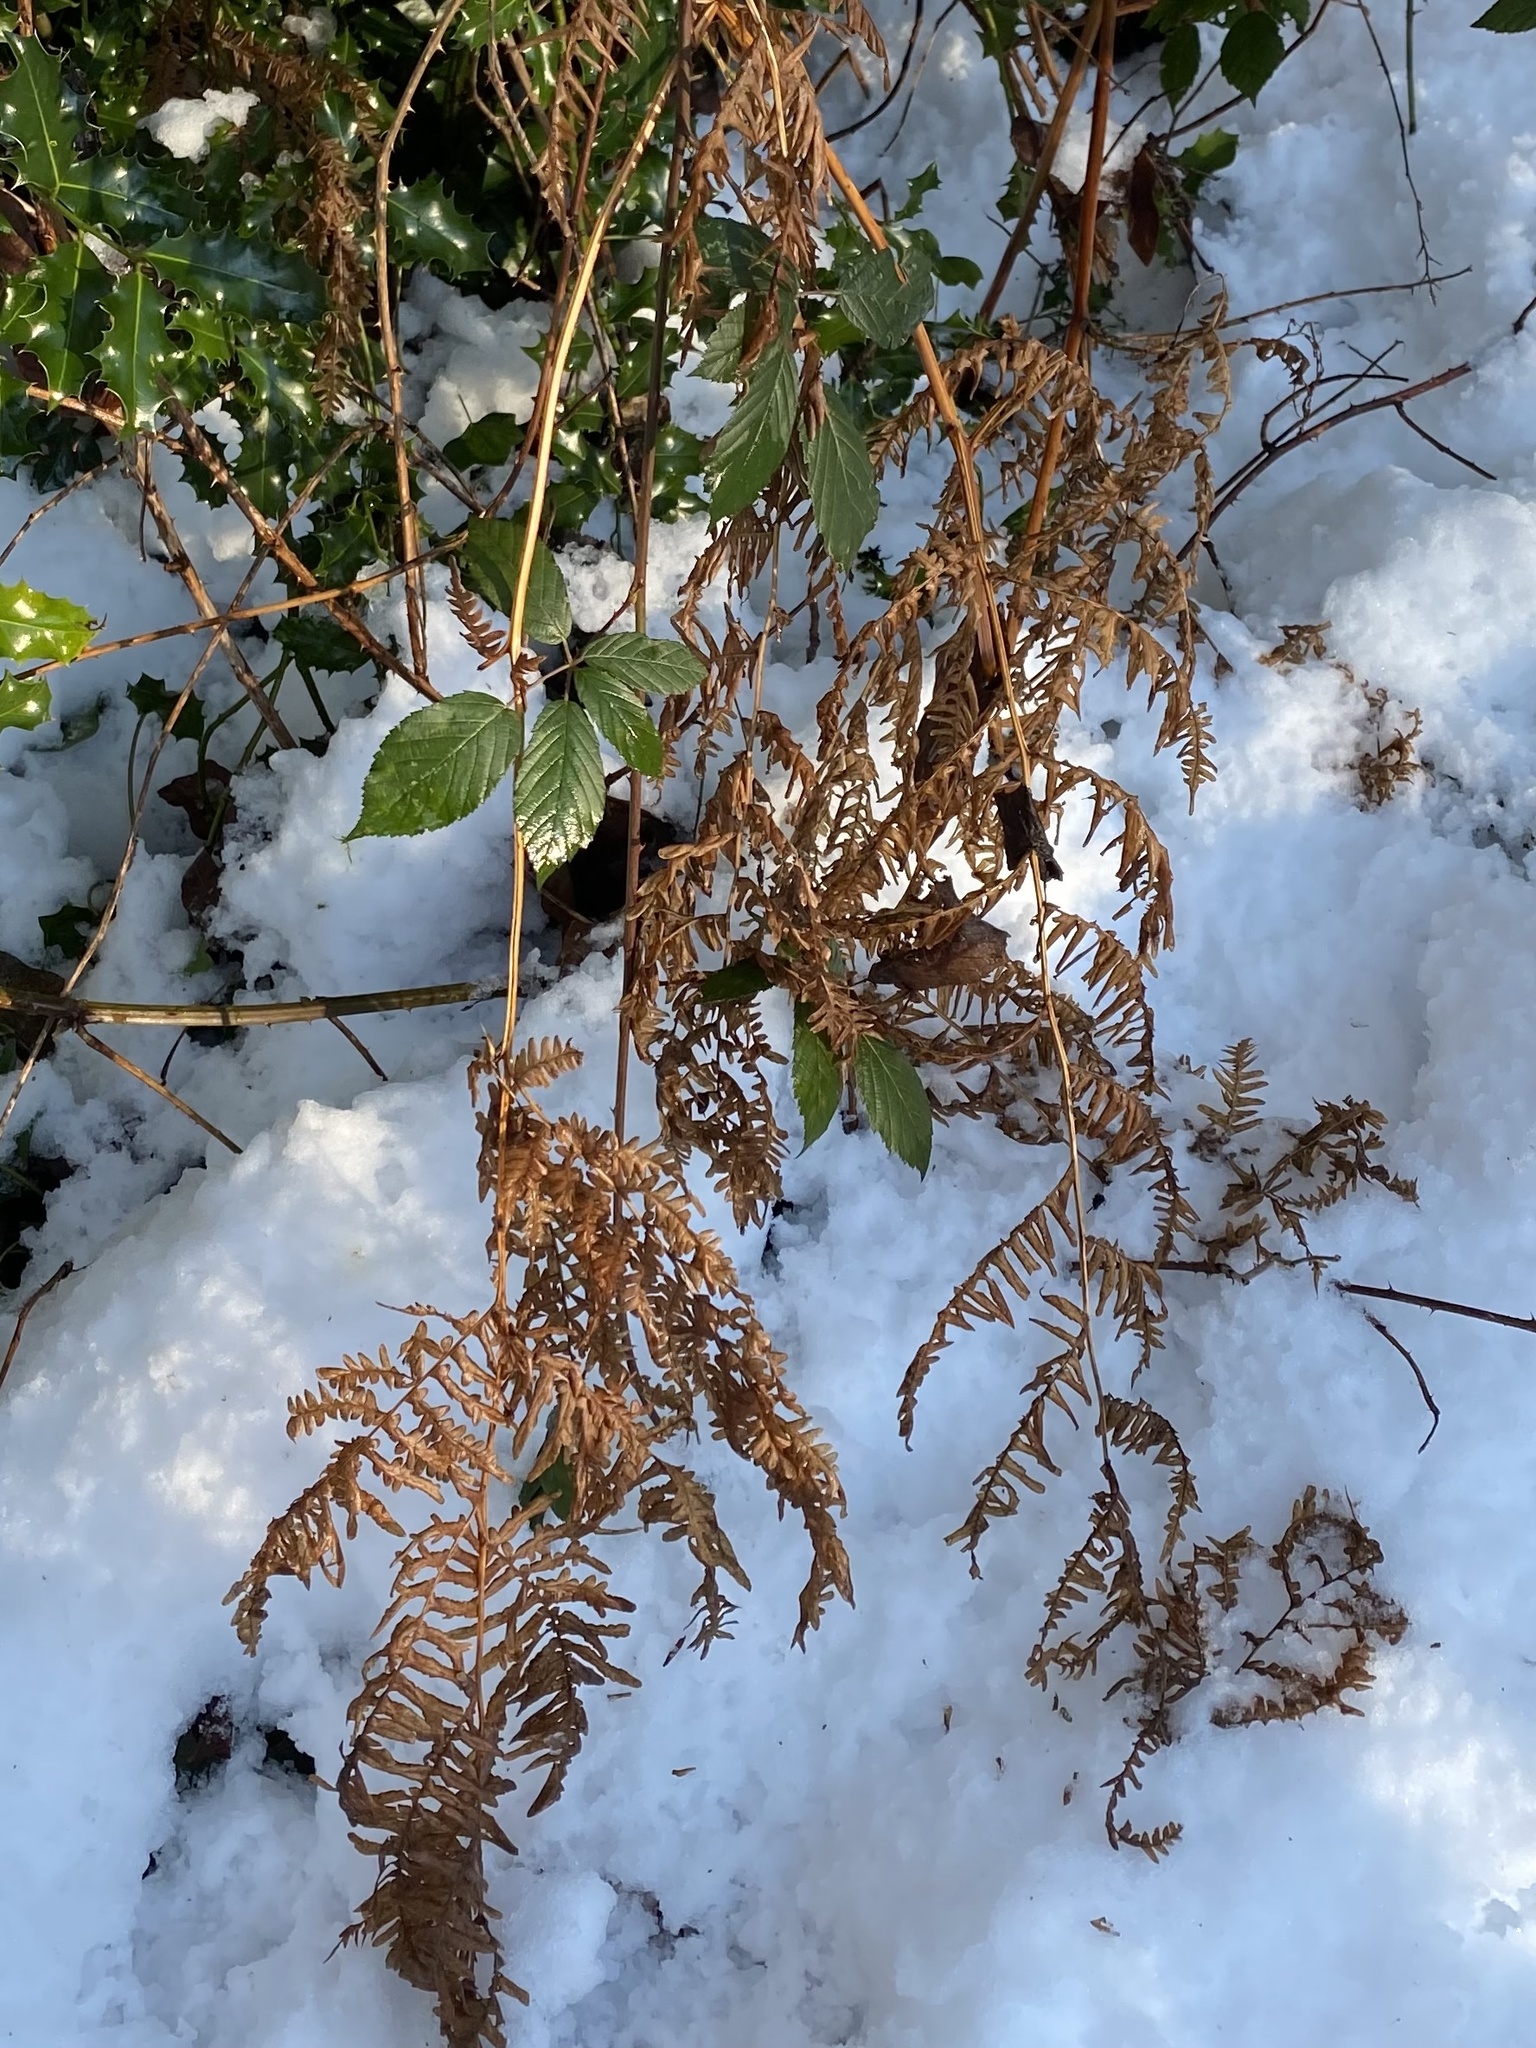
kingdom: Plantae
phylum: Tracheophyta
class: Polypodiopsida
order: Polypodiales
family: Dennstaedtiaceae
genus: Pteridium
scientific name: Pteridium aquilinum
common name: Bracken
